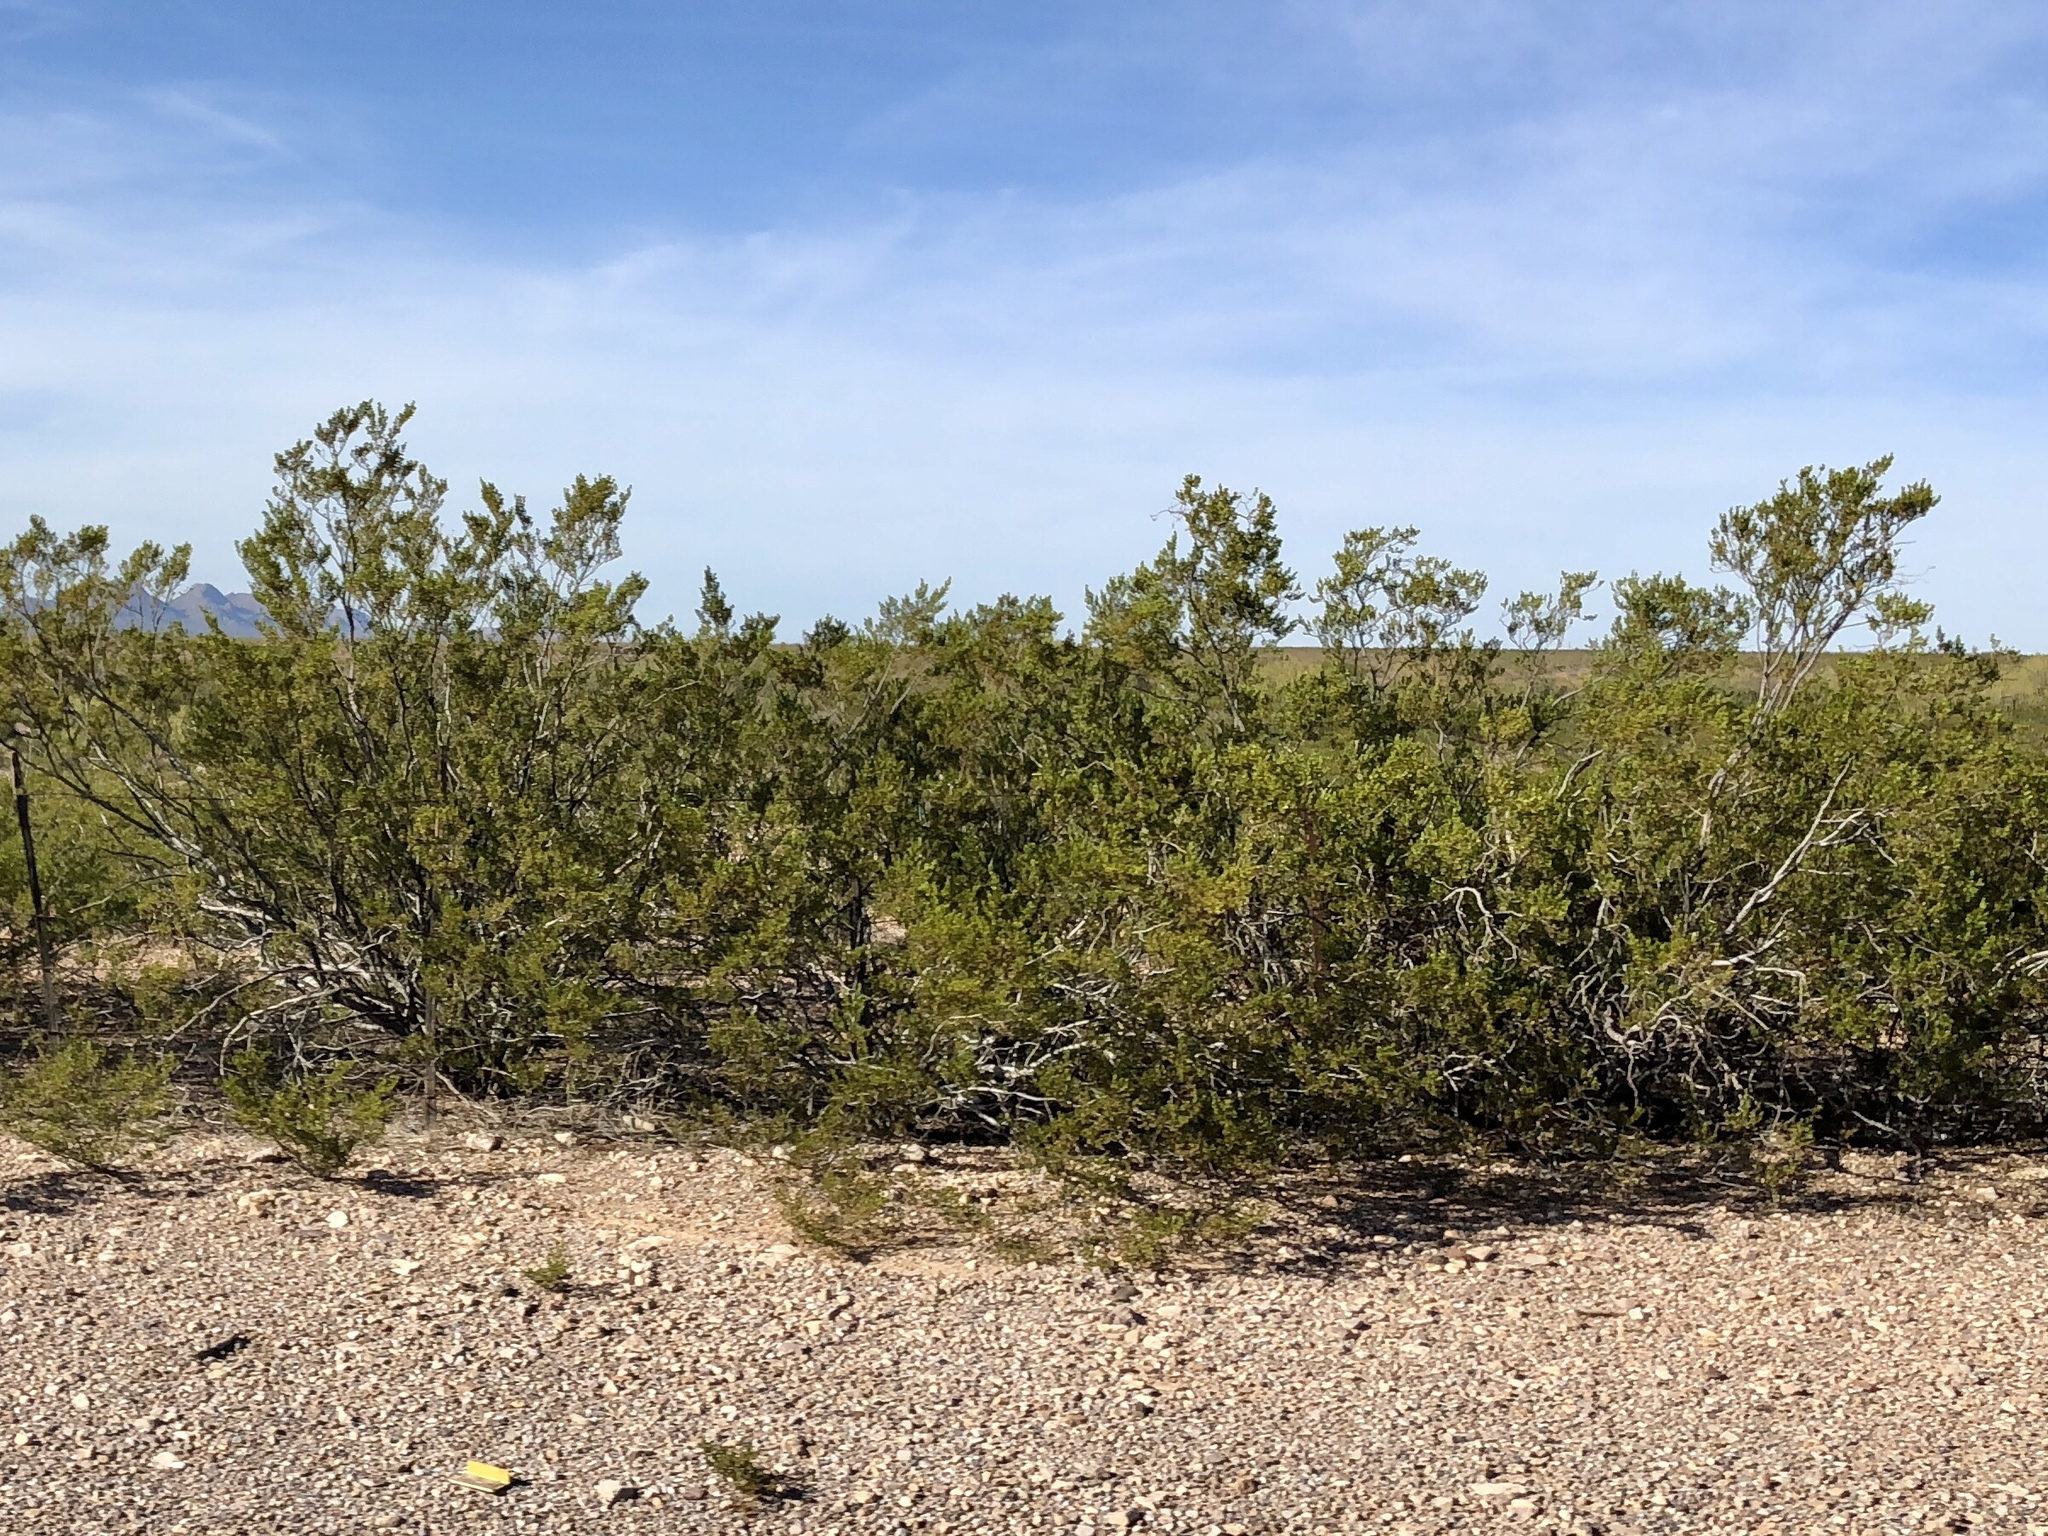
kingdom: Plantae
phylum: Tracheophyta
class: Magnoliopsida
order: Zygophyllales
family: Zygophyllaceae
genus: Larrea
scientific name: Larrea tridentata
